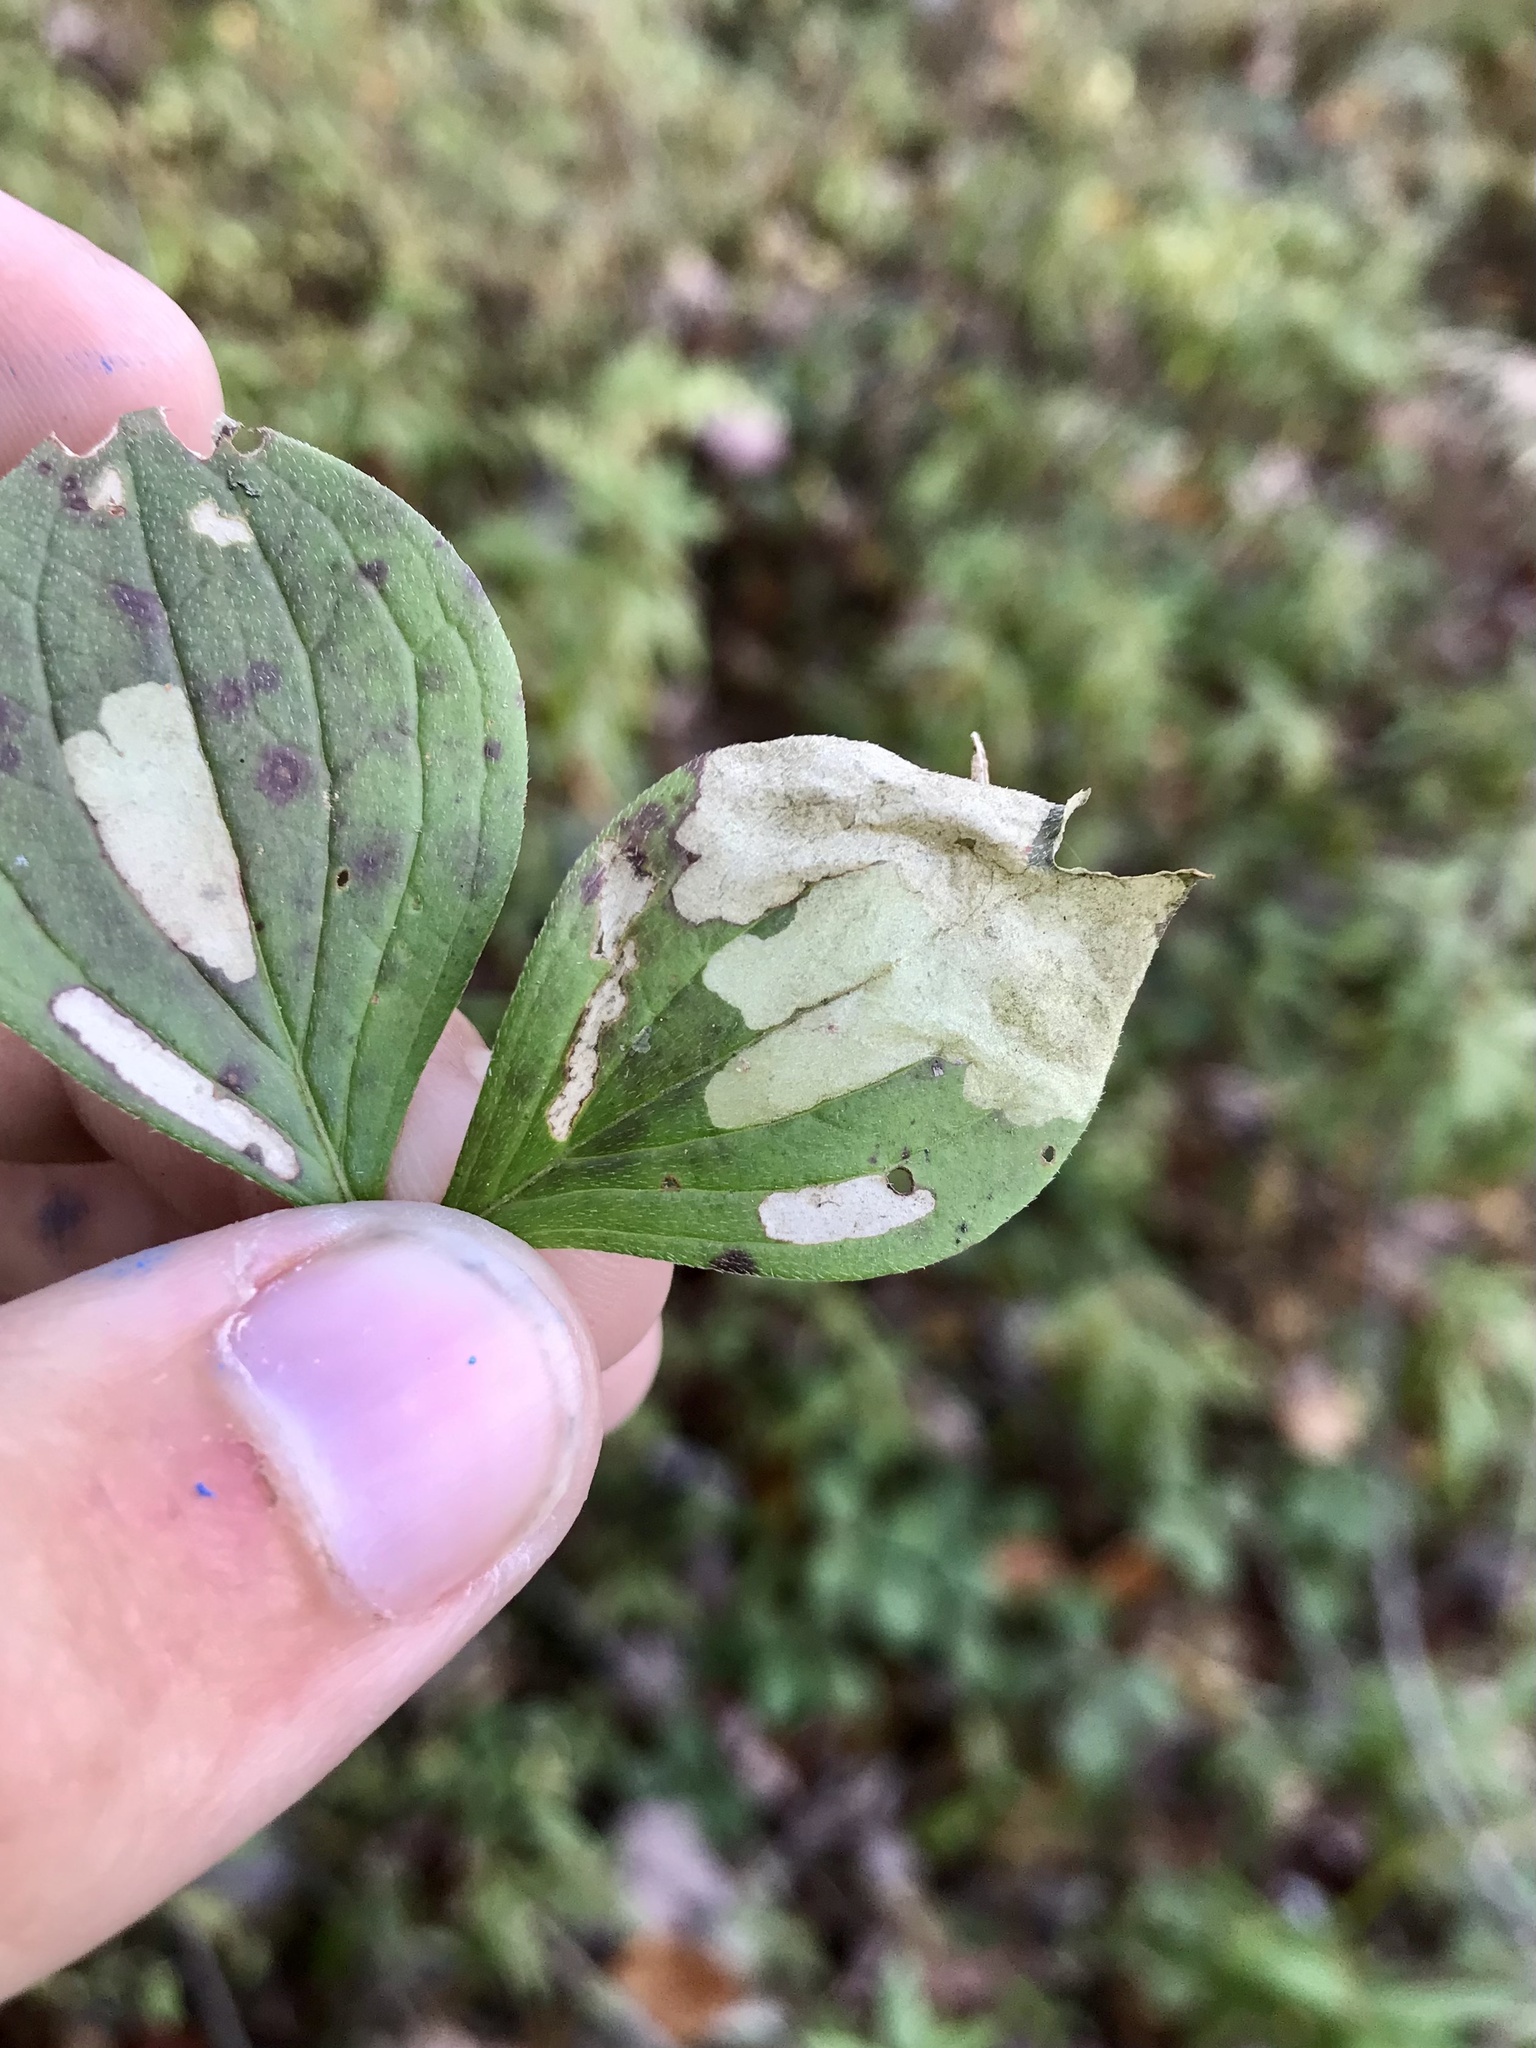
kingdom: Animalia
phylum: Arthropoda
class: Insecta
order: Lepidoptera
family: Coleophoridae
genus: Coleophora
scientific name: Coleophora canadensisella
